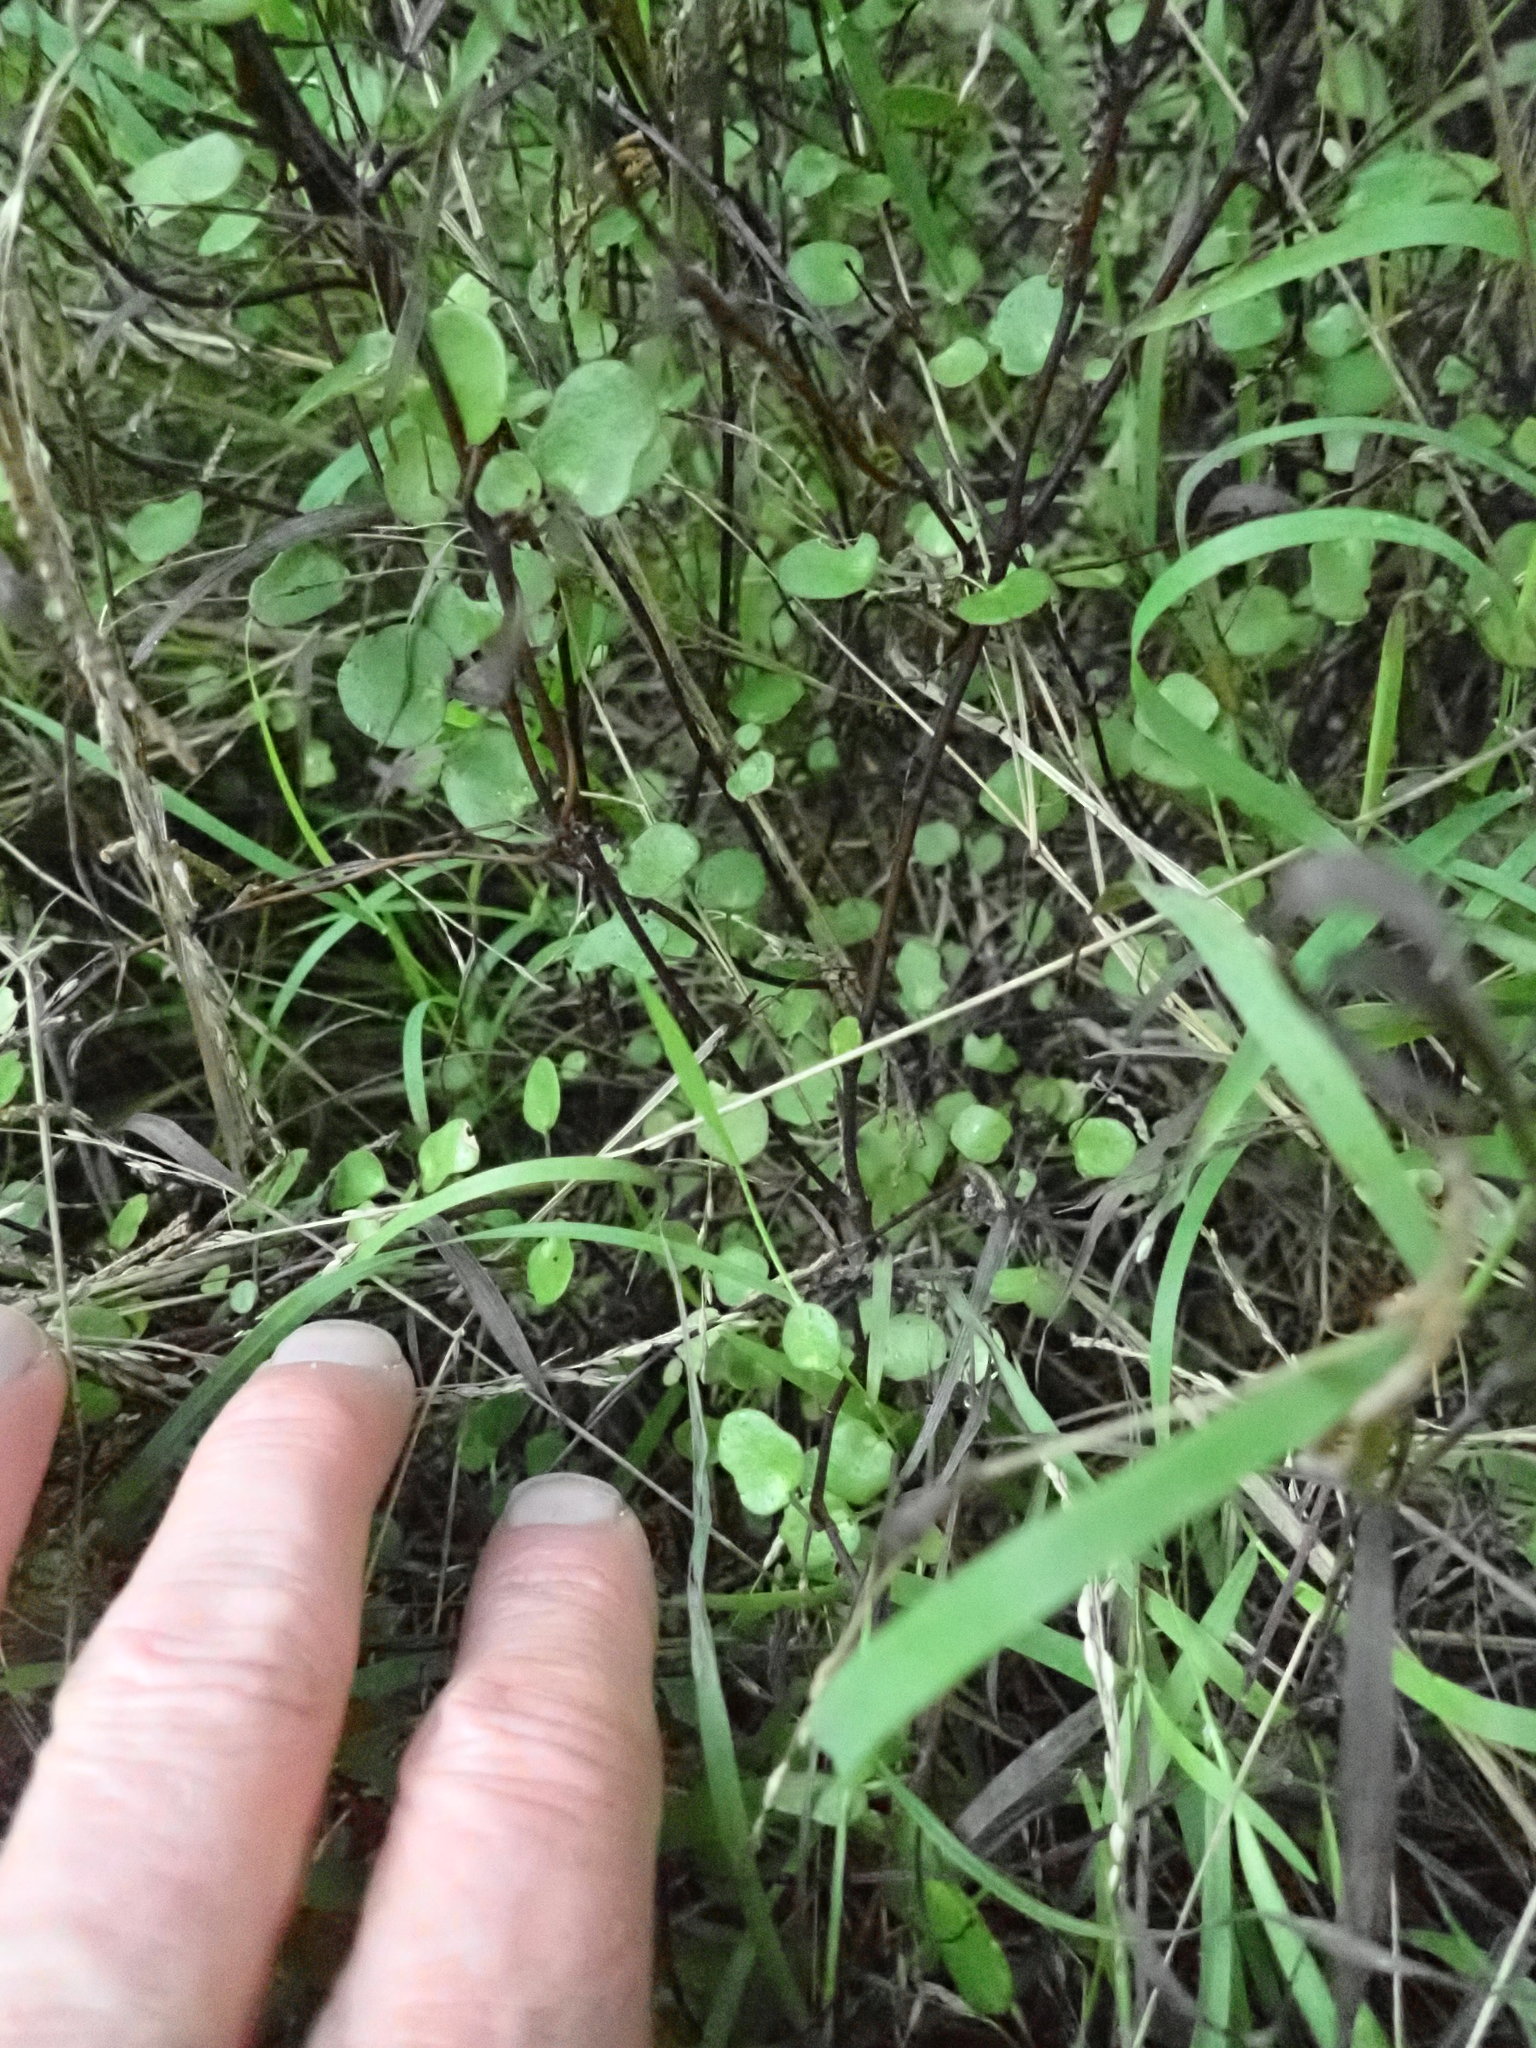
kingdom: Plantae
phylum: Tracheophyta
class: Magnoliopsida
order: Caryophyllales
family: Polygonaceae
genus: Muehlenbeckia
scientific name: Muehlenbeckia complexa
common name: Wireplant
